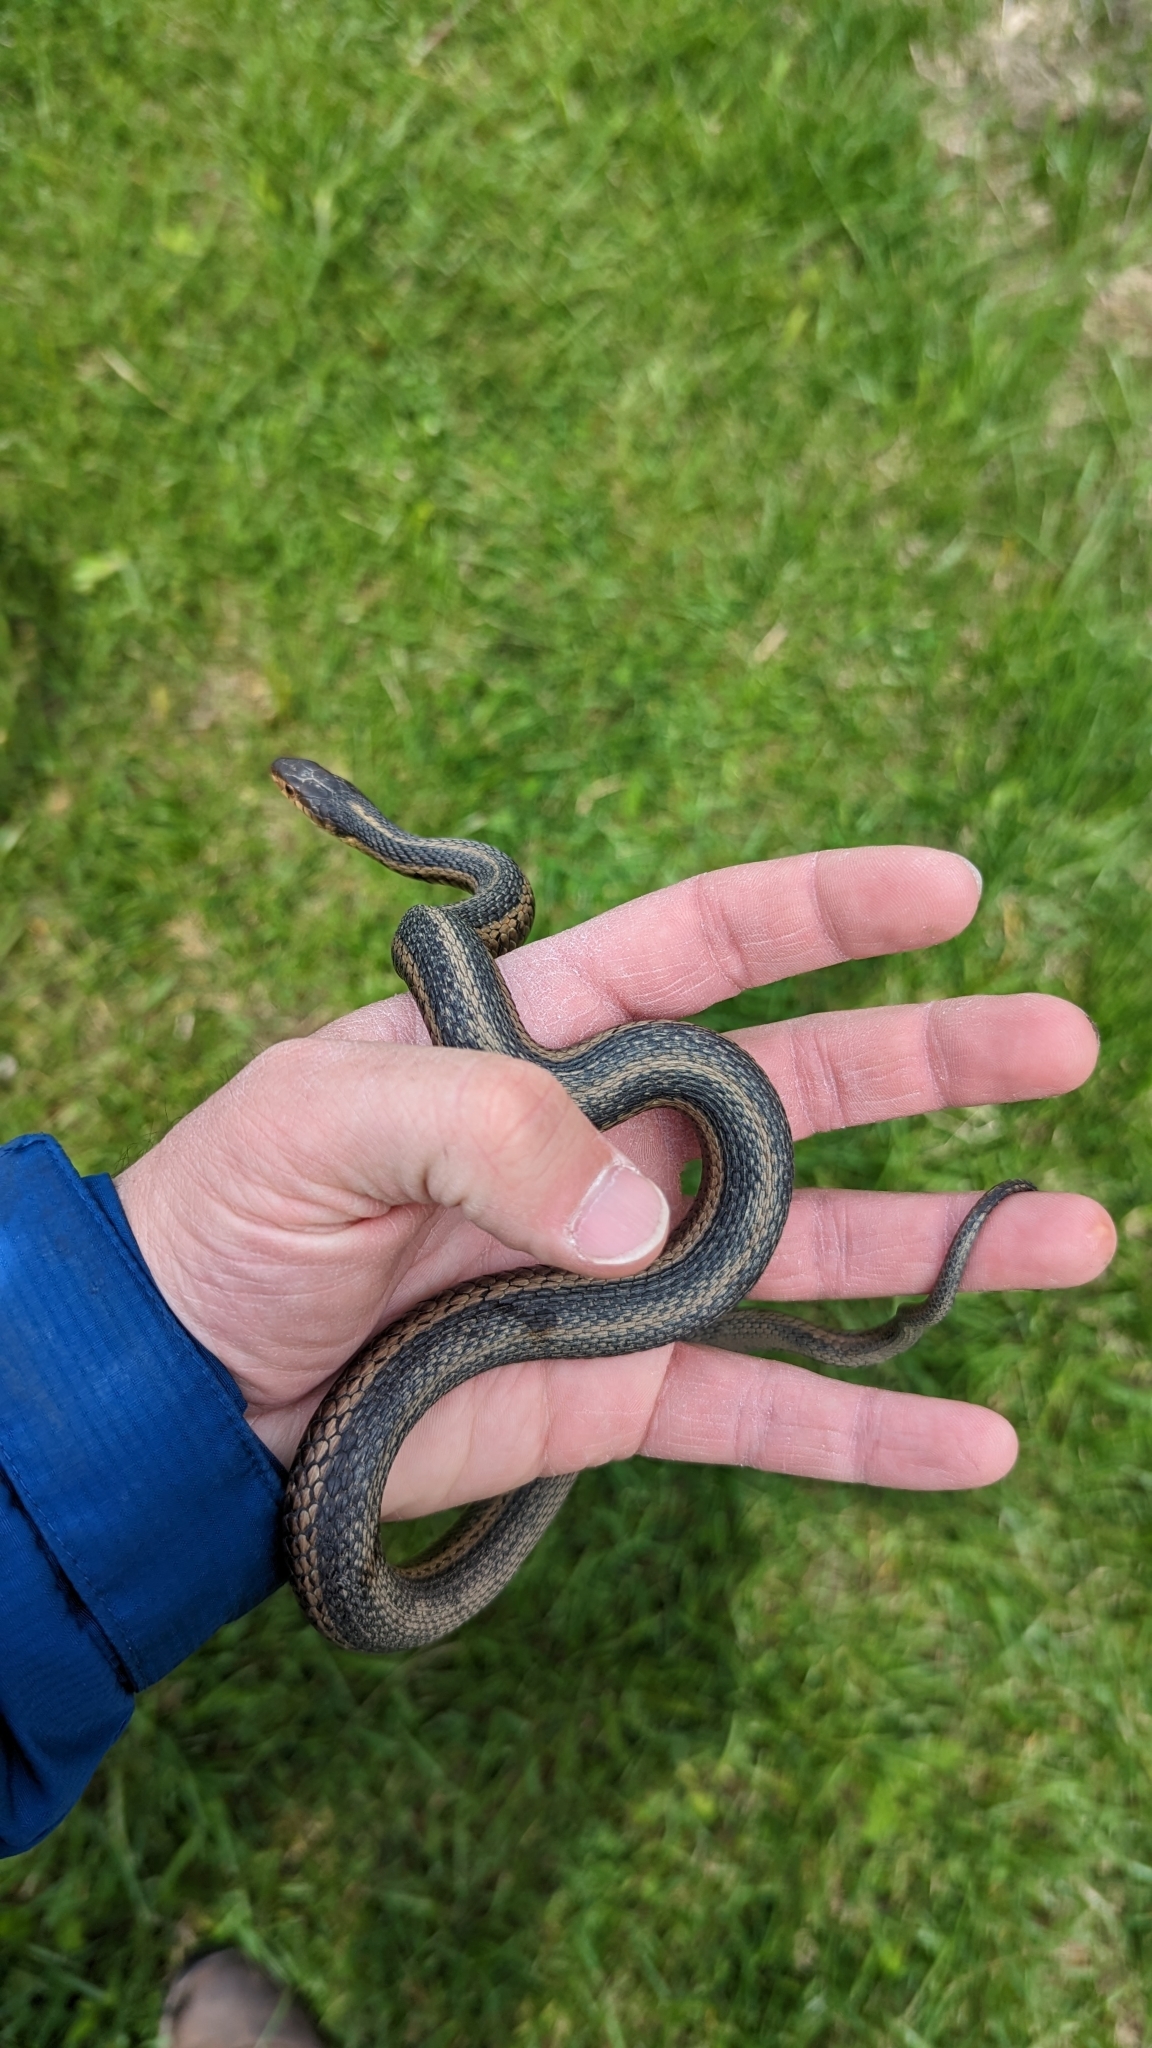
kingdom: Animalia
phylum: Chordata
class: Squamata
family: Colubridae
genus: Thamnophis
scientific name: Thamnophis sirtalis
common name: Common garter snake
